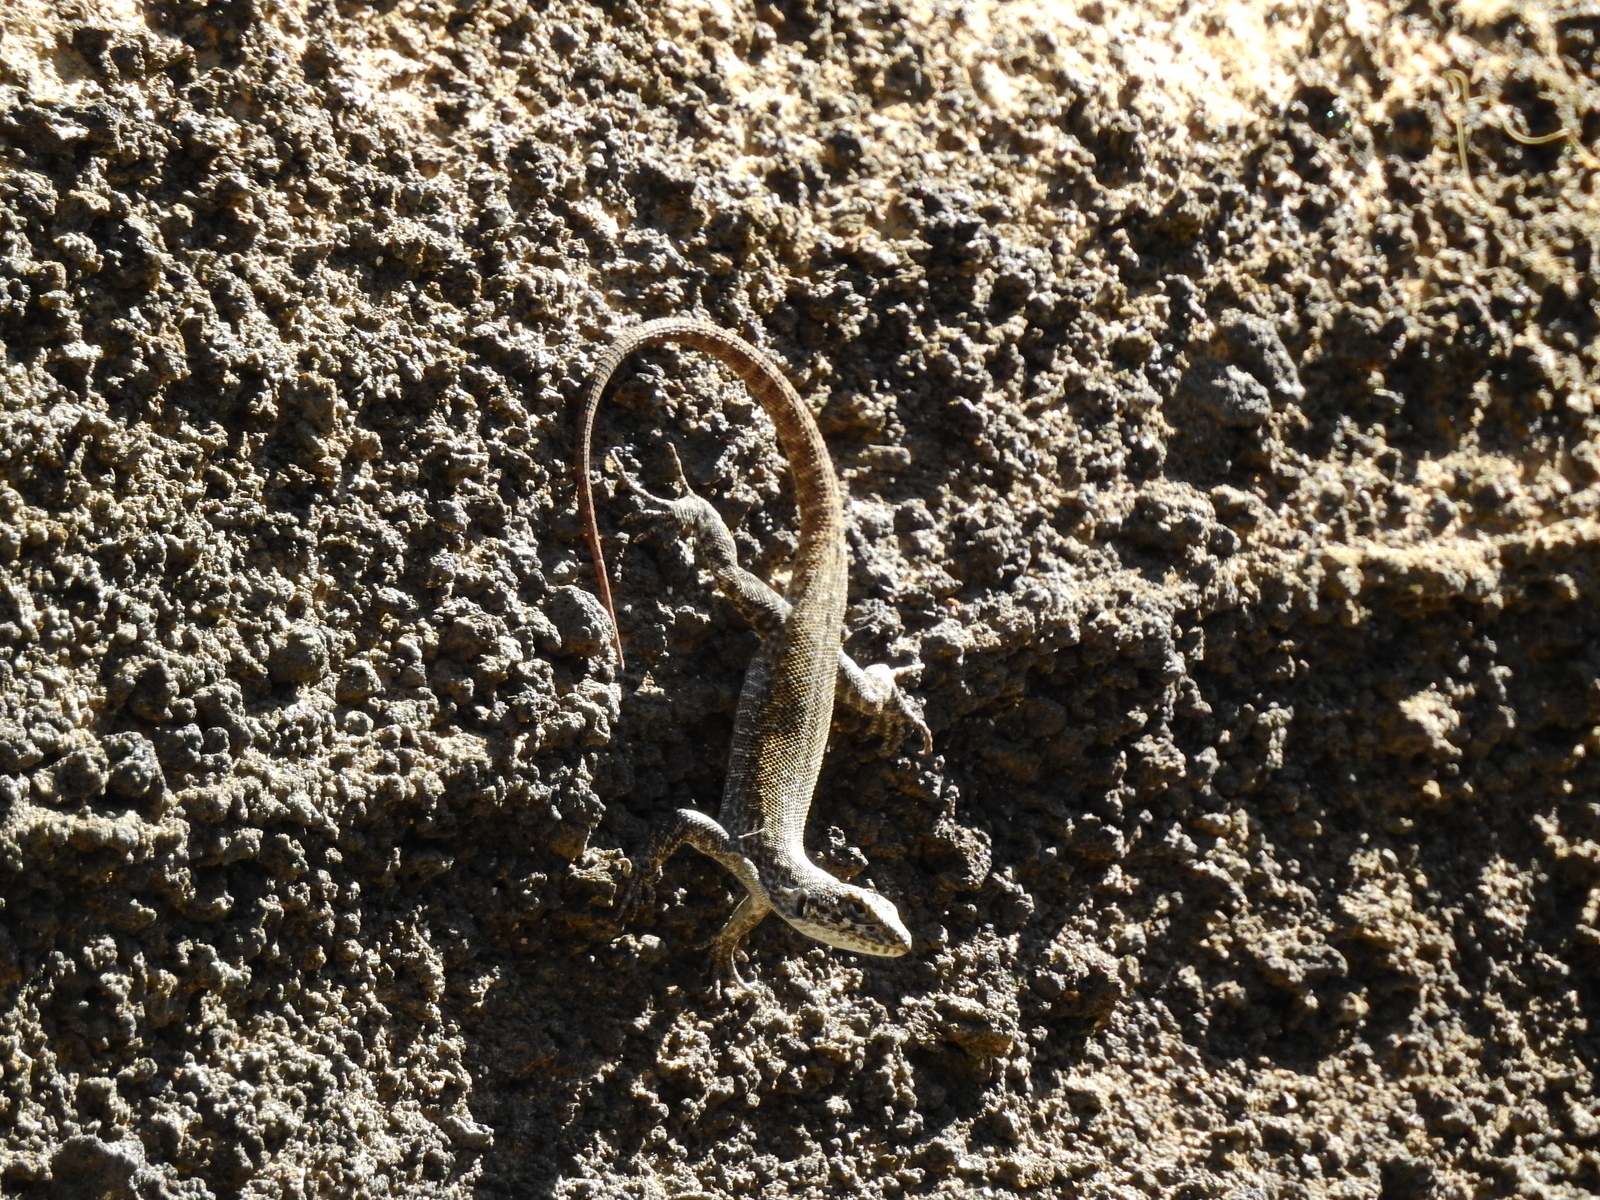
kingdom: Animalia
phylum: Chordata
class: Squamata
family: Liolaemidae
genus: Liolaemus
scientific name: Liolaemus austromendocinus
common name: Austromendocino tree iguana
